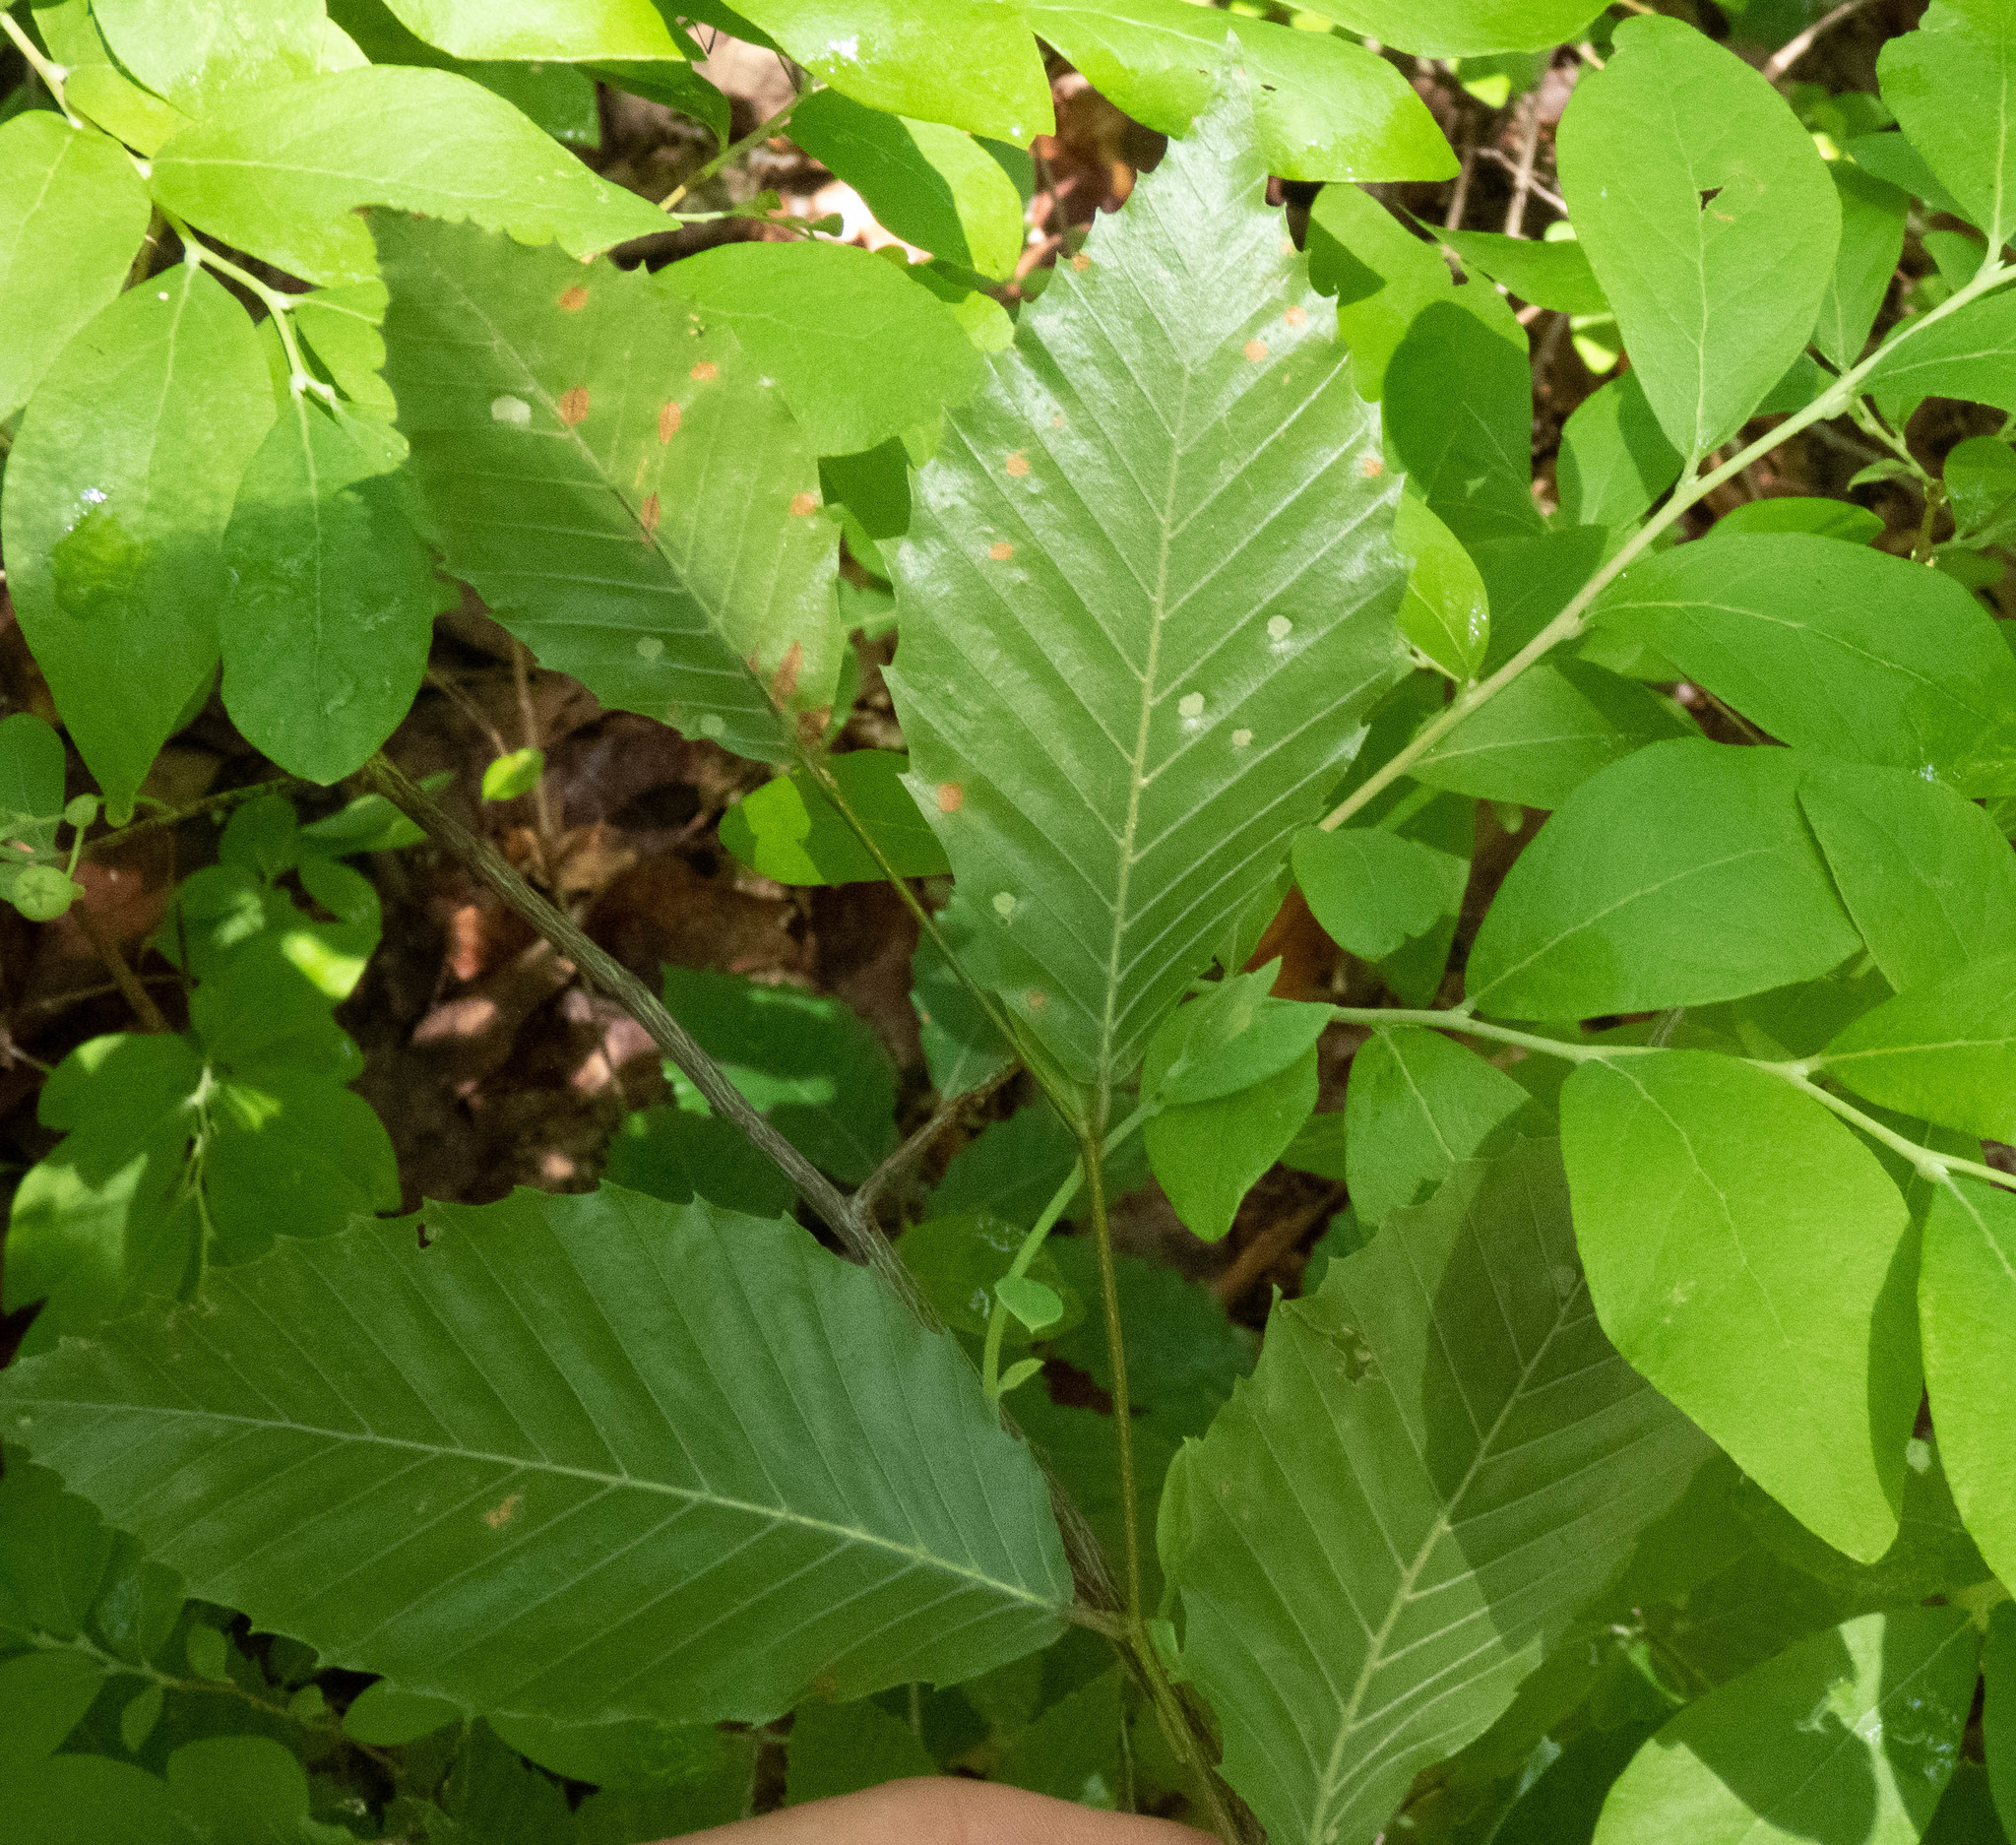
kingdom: Plantae
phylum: Tracheophyta
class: Magnoliopsida
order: Fagales
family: Fagaceae
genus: Fagus
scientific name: Fagus grandifolia
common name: American beech
